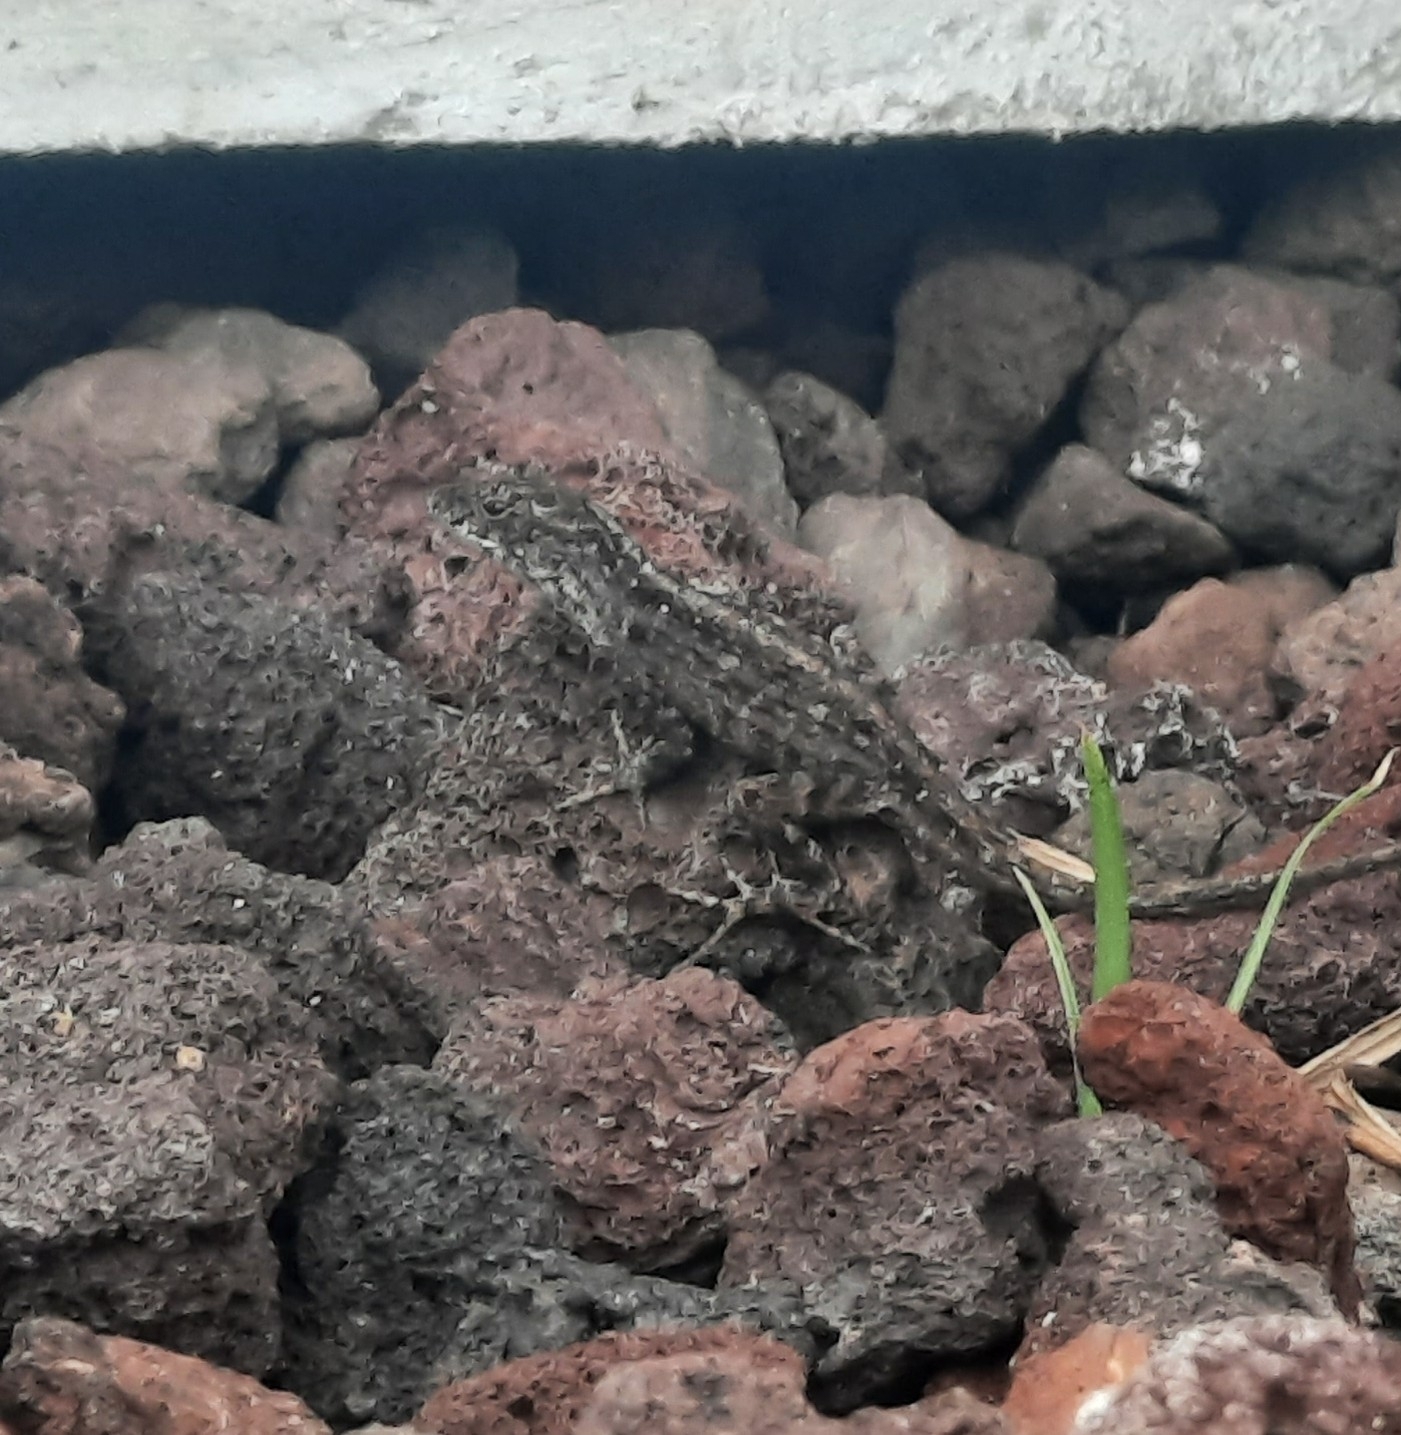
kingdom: Animalia
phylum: Chordata
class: Squamata
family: Dactyloidae
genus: Anolis
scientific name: Anolis sagrei
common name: Brown anole
